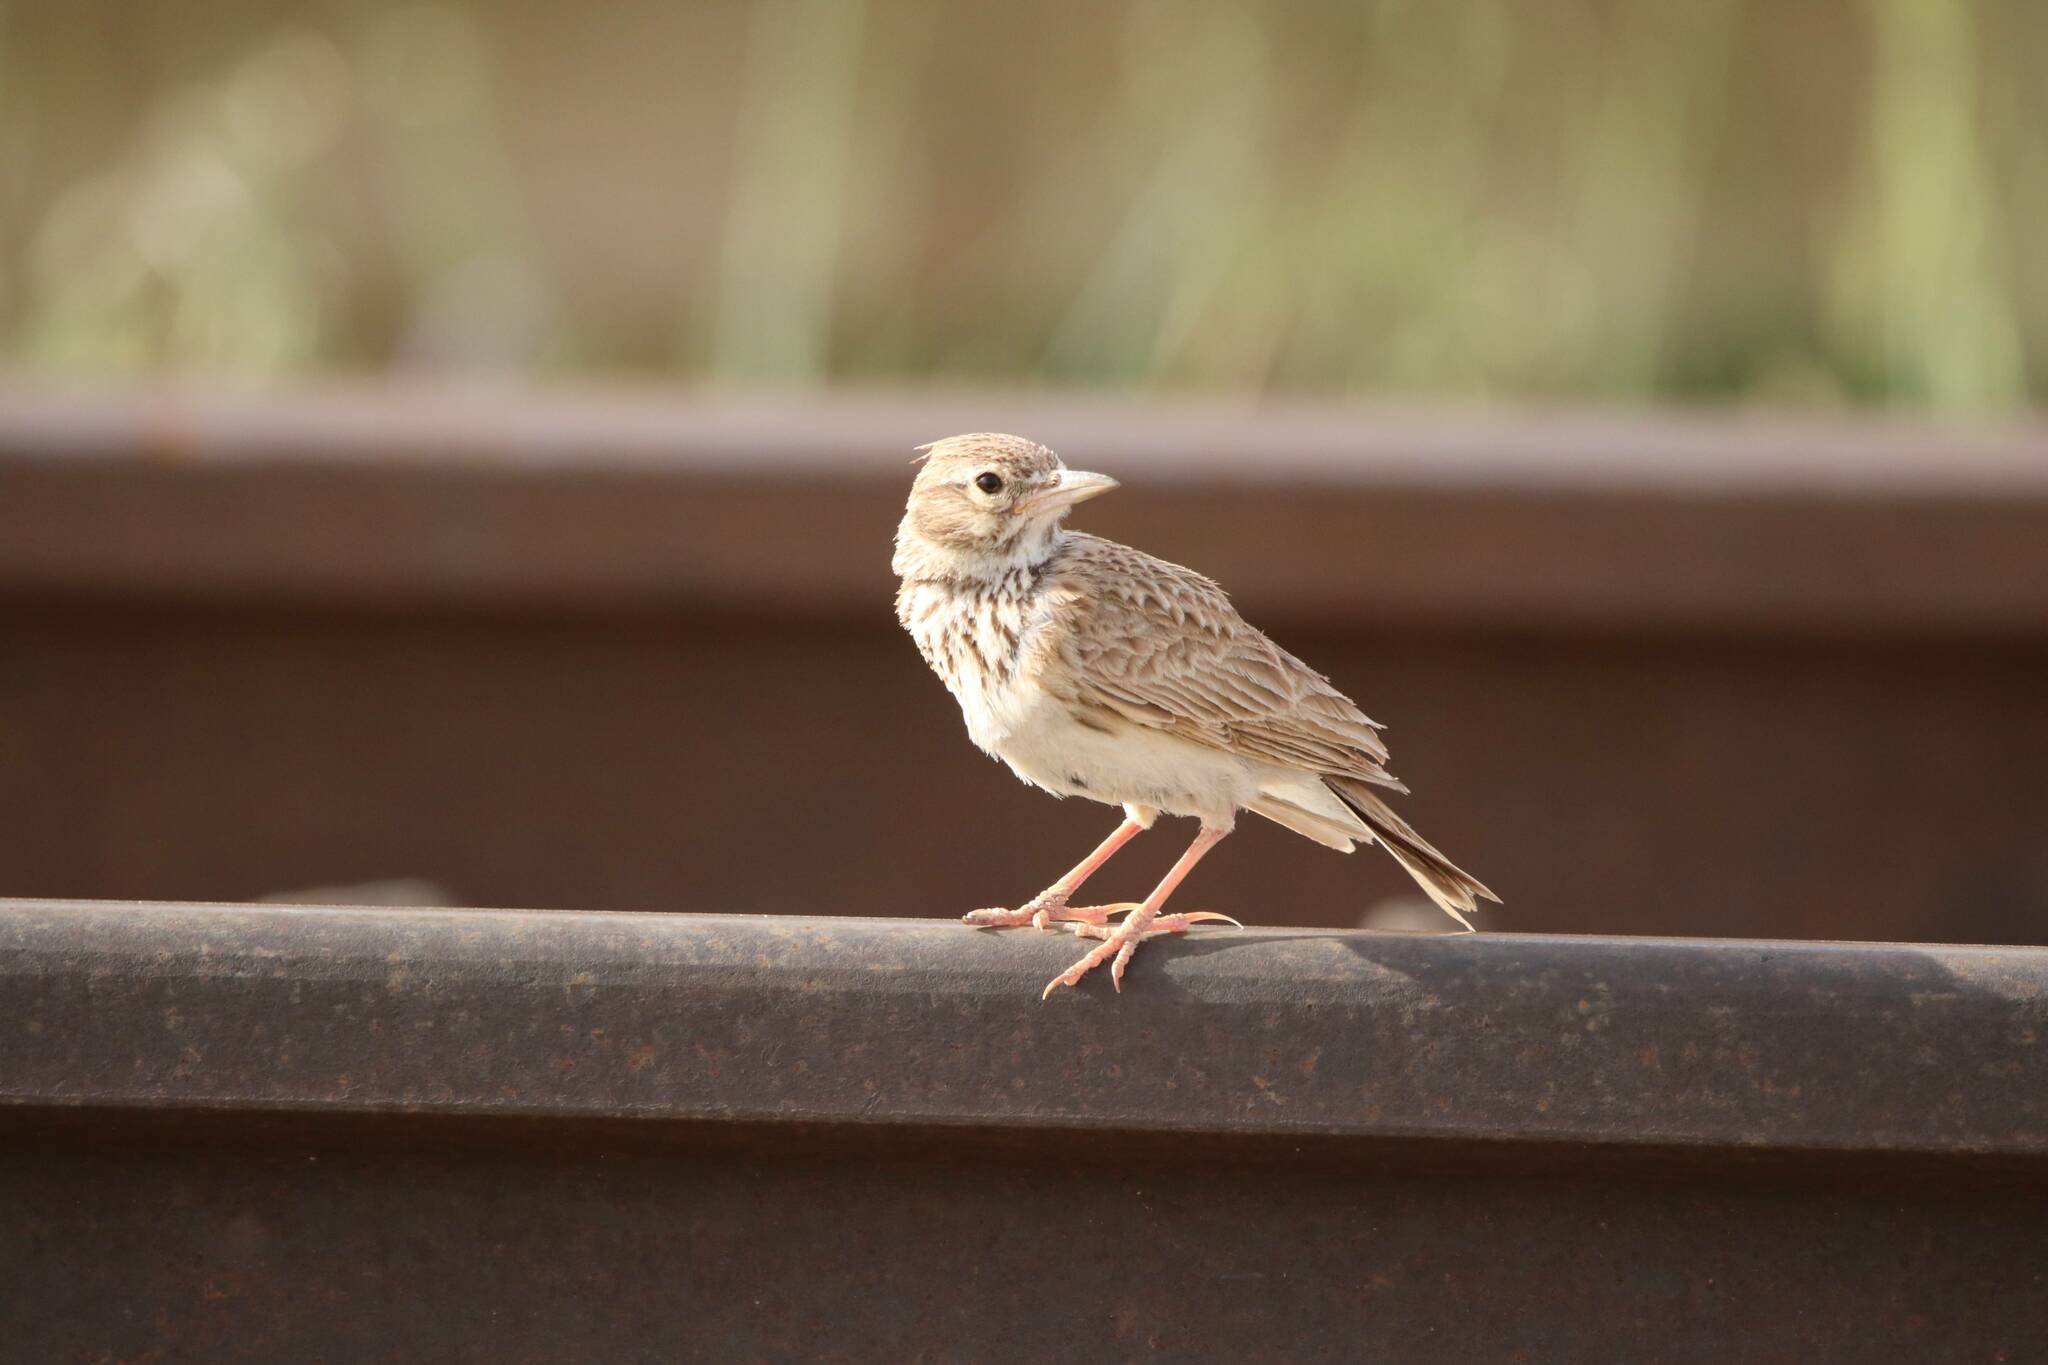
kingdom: Animalia
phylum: Chordata
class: Aves
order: Passeriformes
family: Alaudidae
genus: Galerida
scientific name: Galerida cristata
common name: Crested lark
